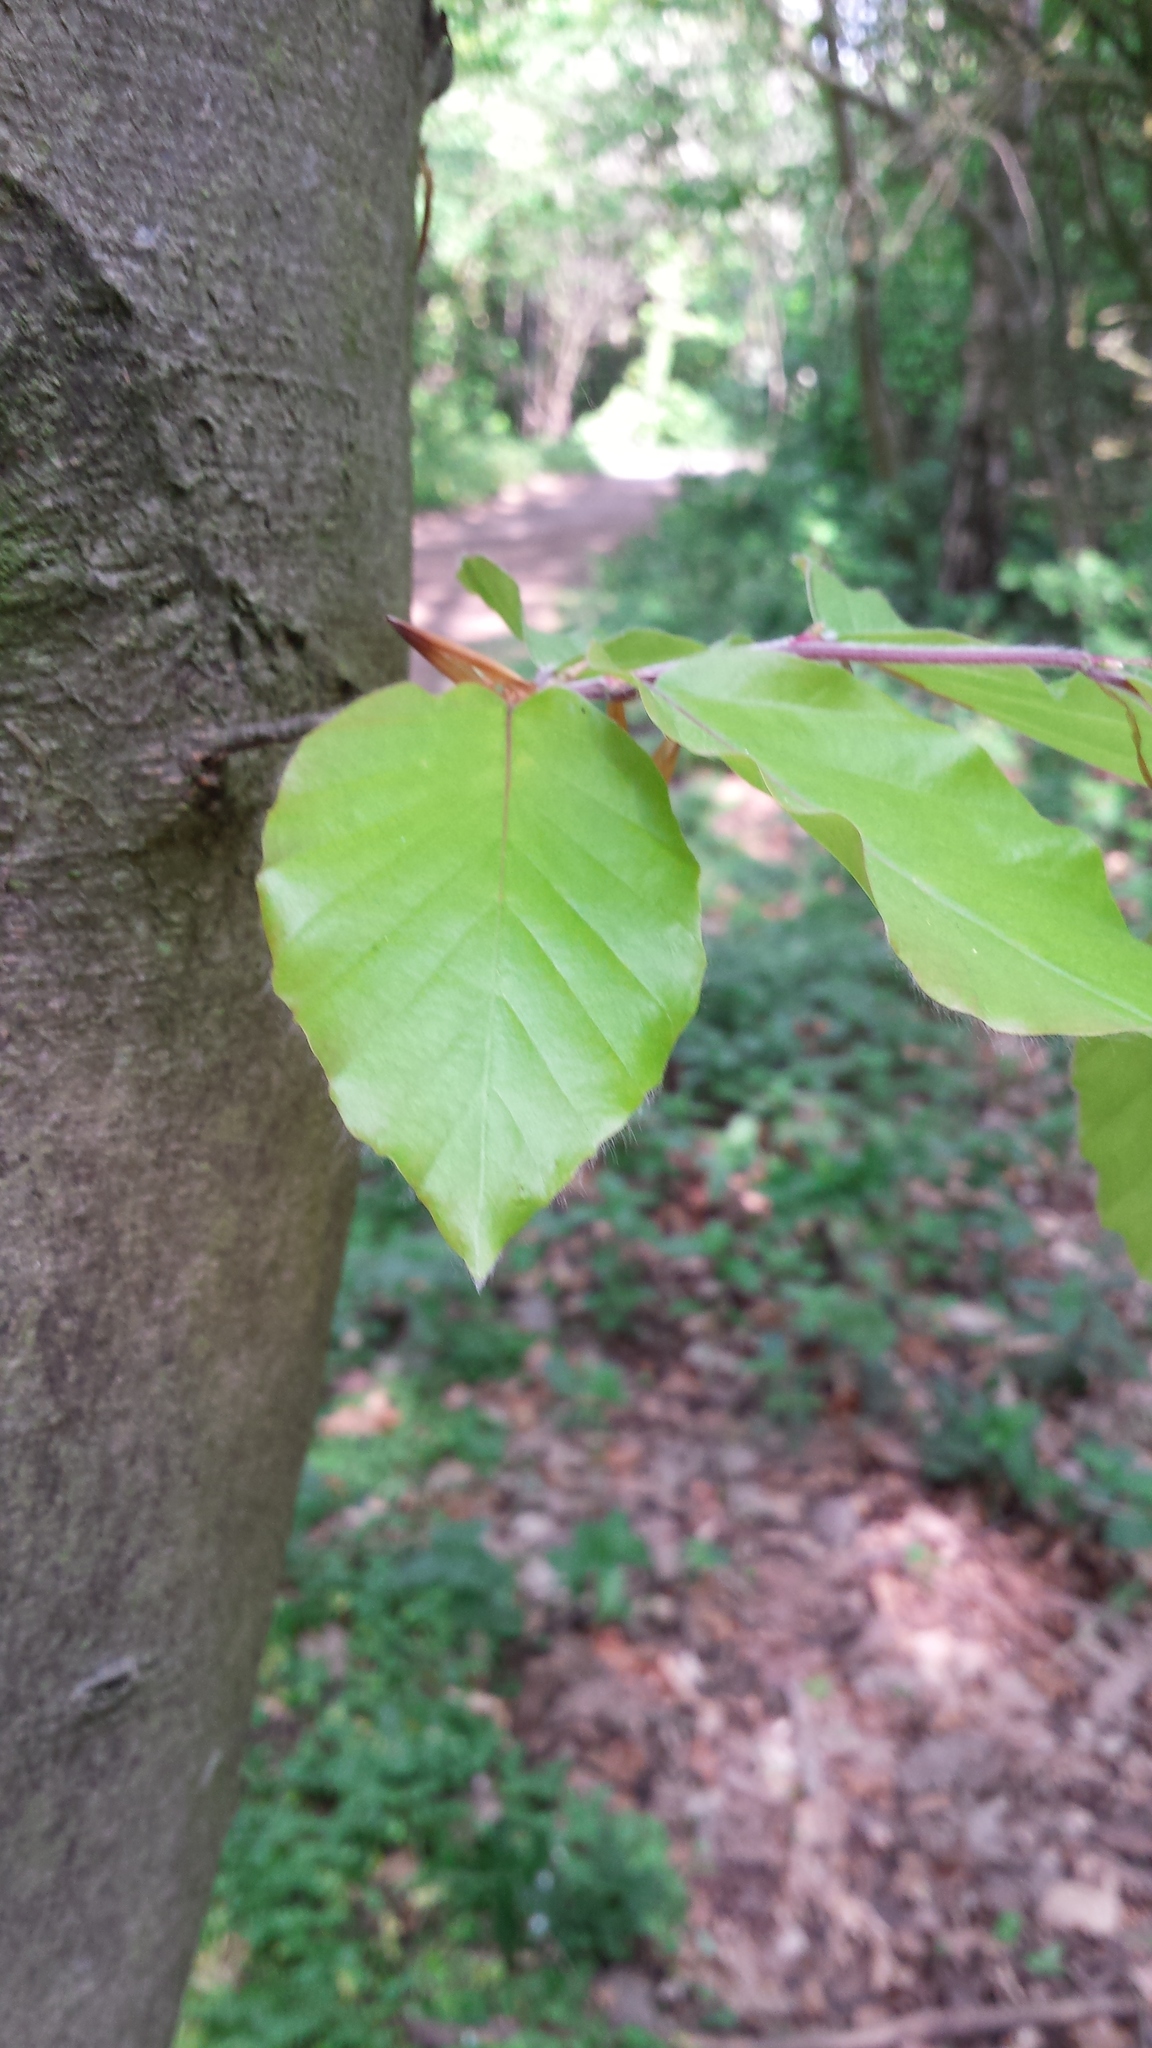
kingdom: Plantae
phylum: Tracheophyta
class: Magnoliopsida
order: Fagales
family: Fagaceae
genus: Fagus
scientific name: Fagus sylvatica
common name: Beech
